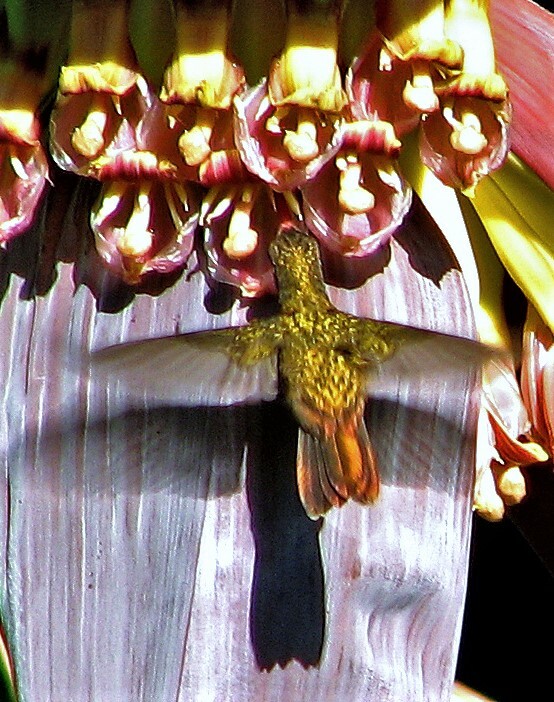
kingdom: Animalia
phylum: Chordata
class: Aves
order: Apodiformes
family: Trochilidae
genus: Hylocharis
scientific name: Hylocharis chrysura
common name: Gilded sapphire
